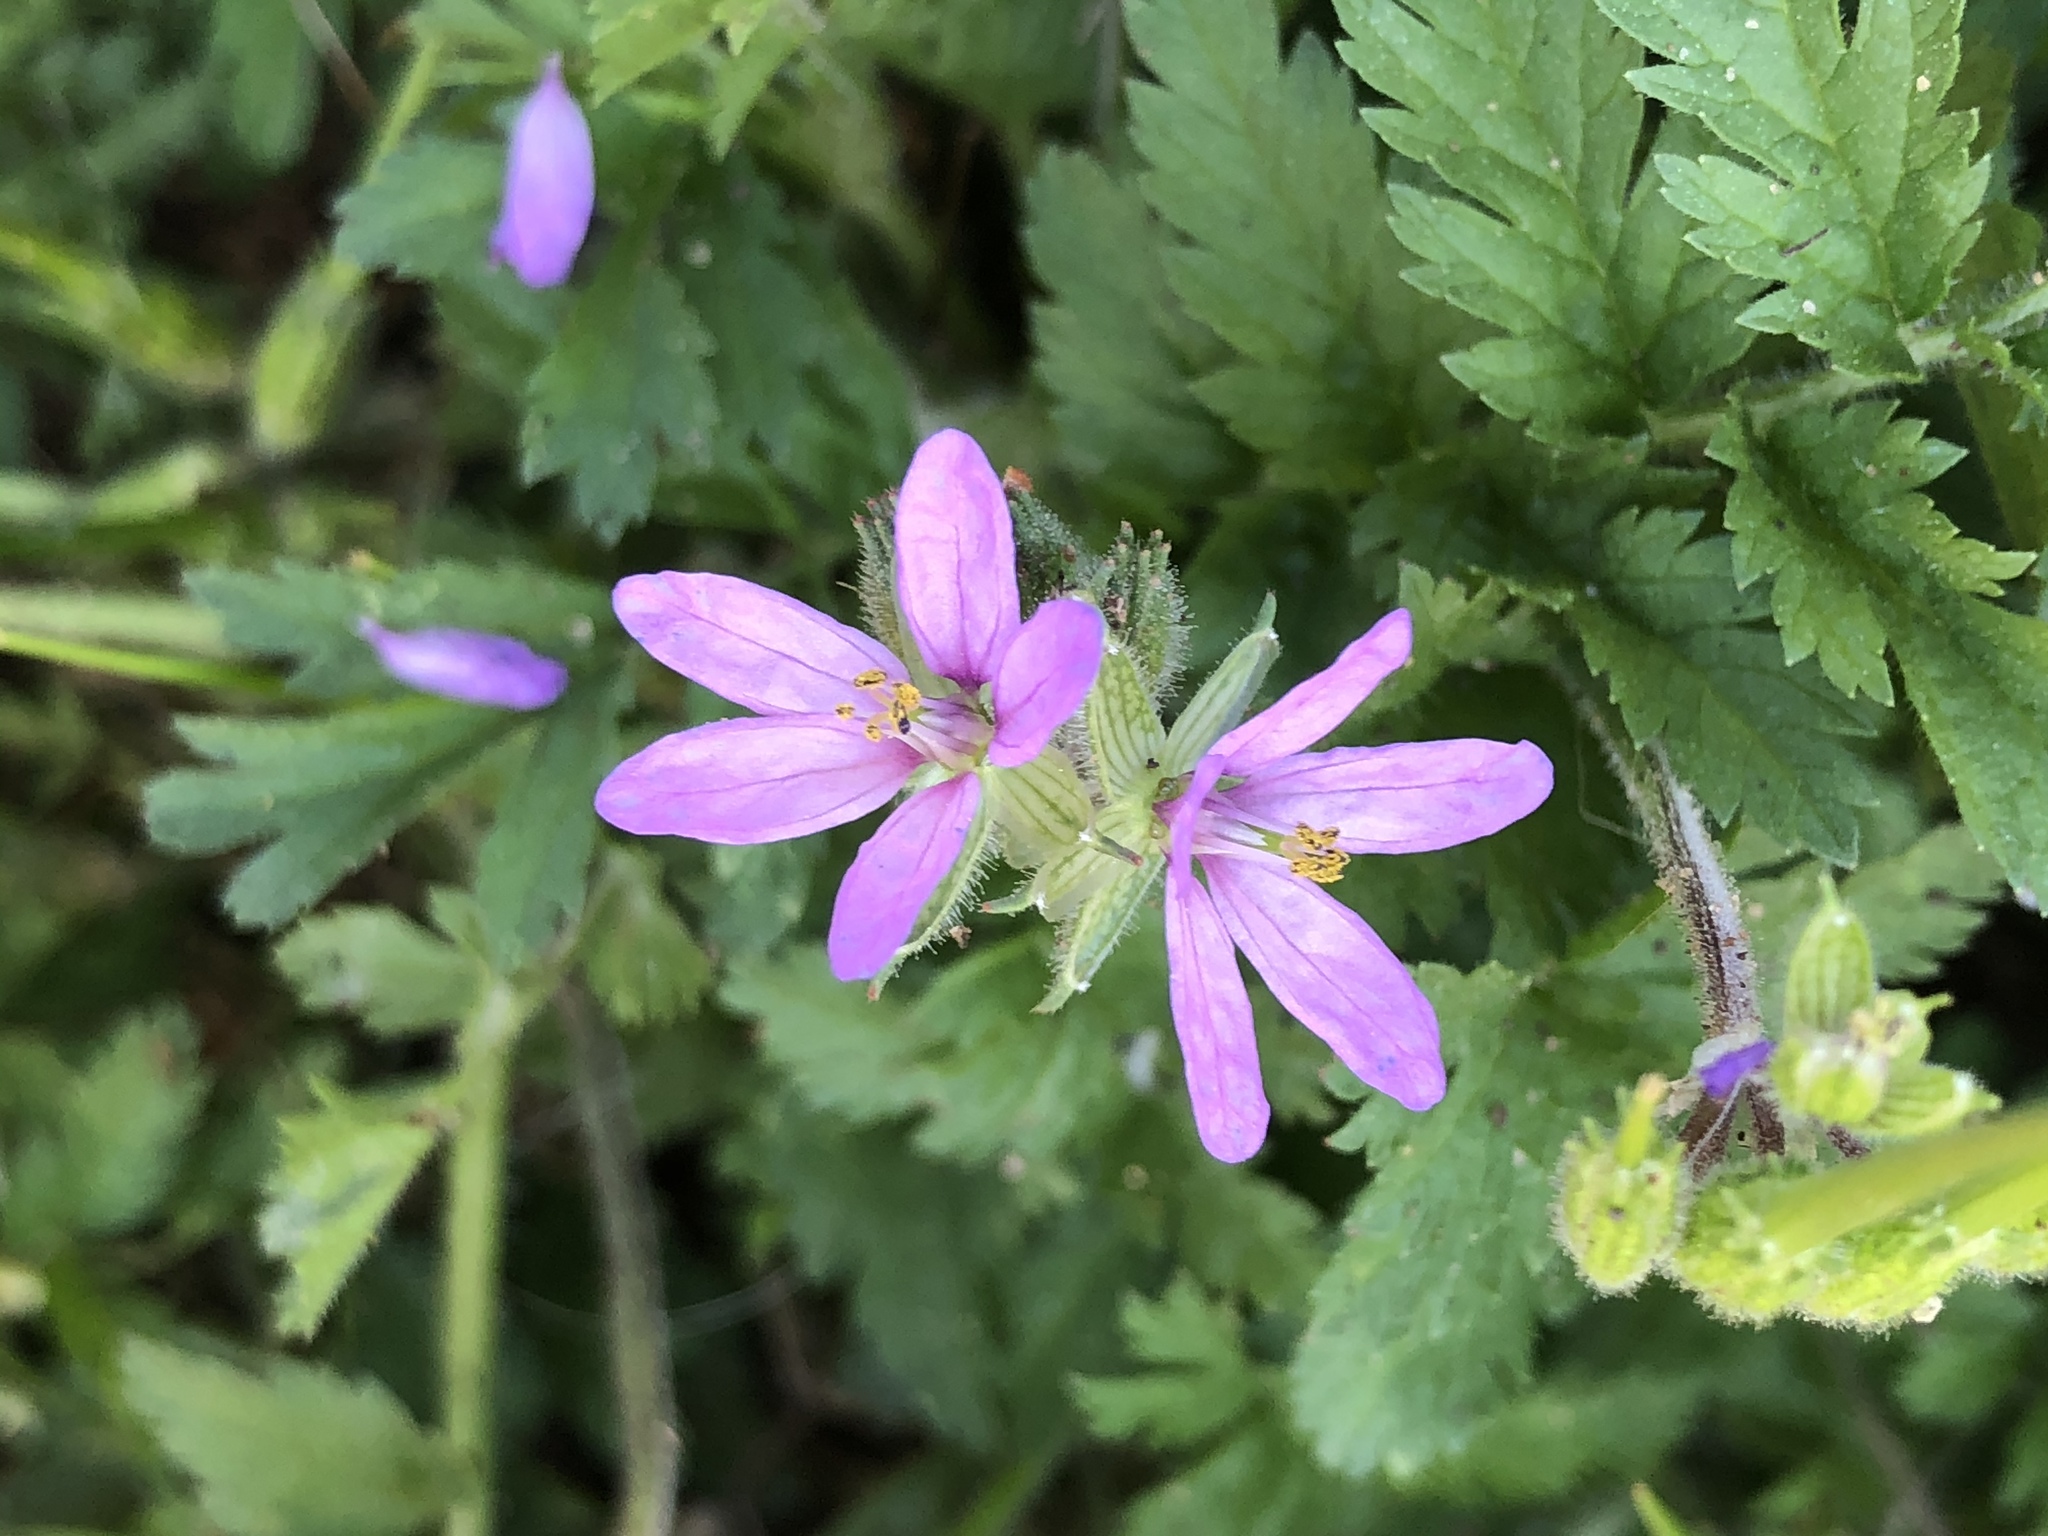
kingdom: Plantae
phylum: Tracheophyta
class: Magnoliopsida
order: Geraniales
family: Geraniaceae
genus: Erodium
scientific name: Erodium moschatum
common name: Musk stork's-bill
